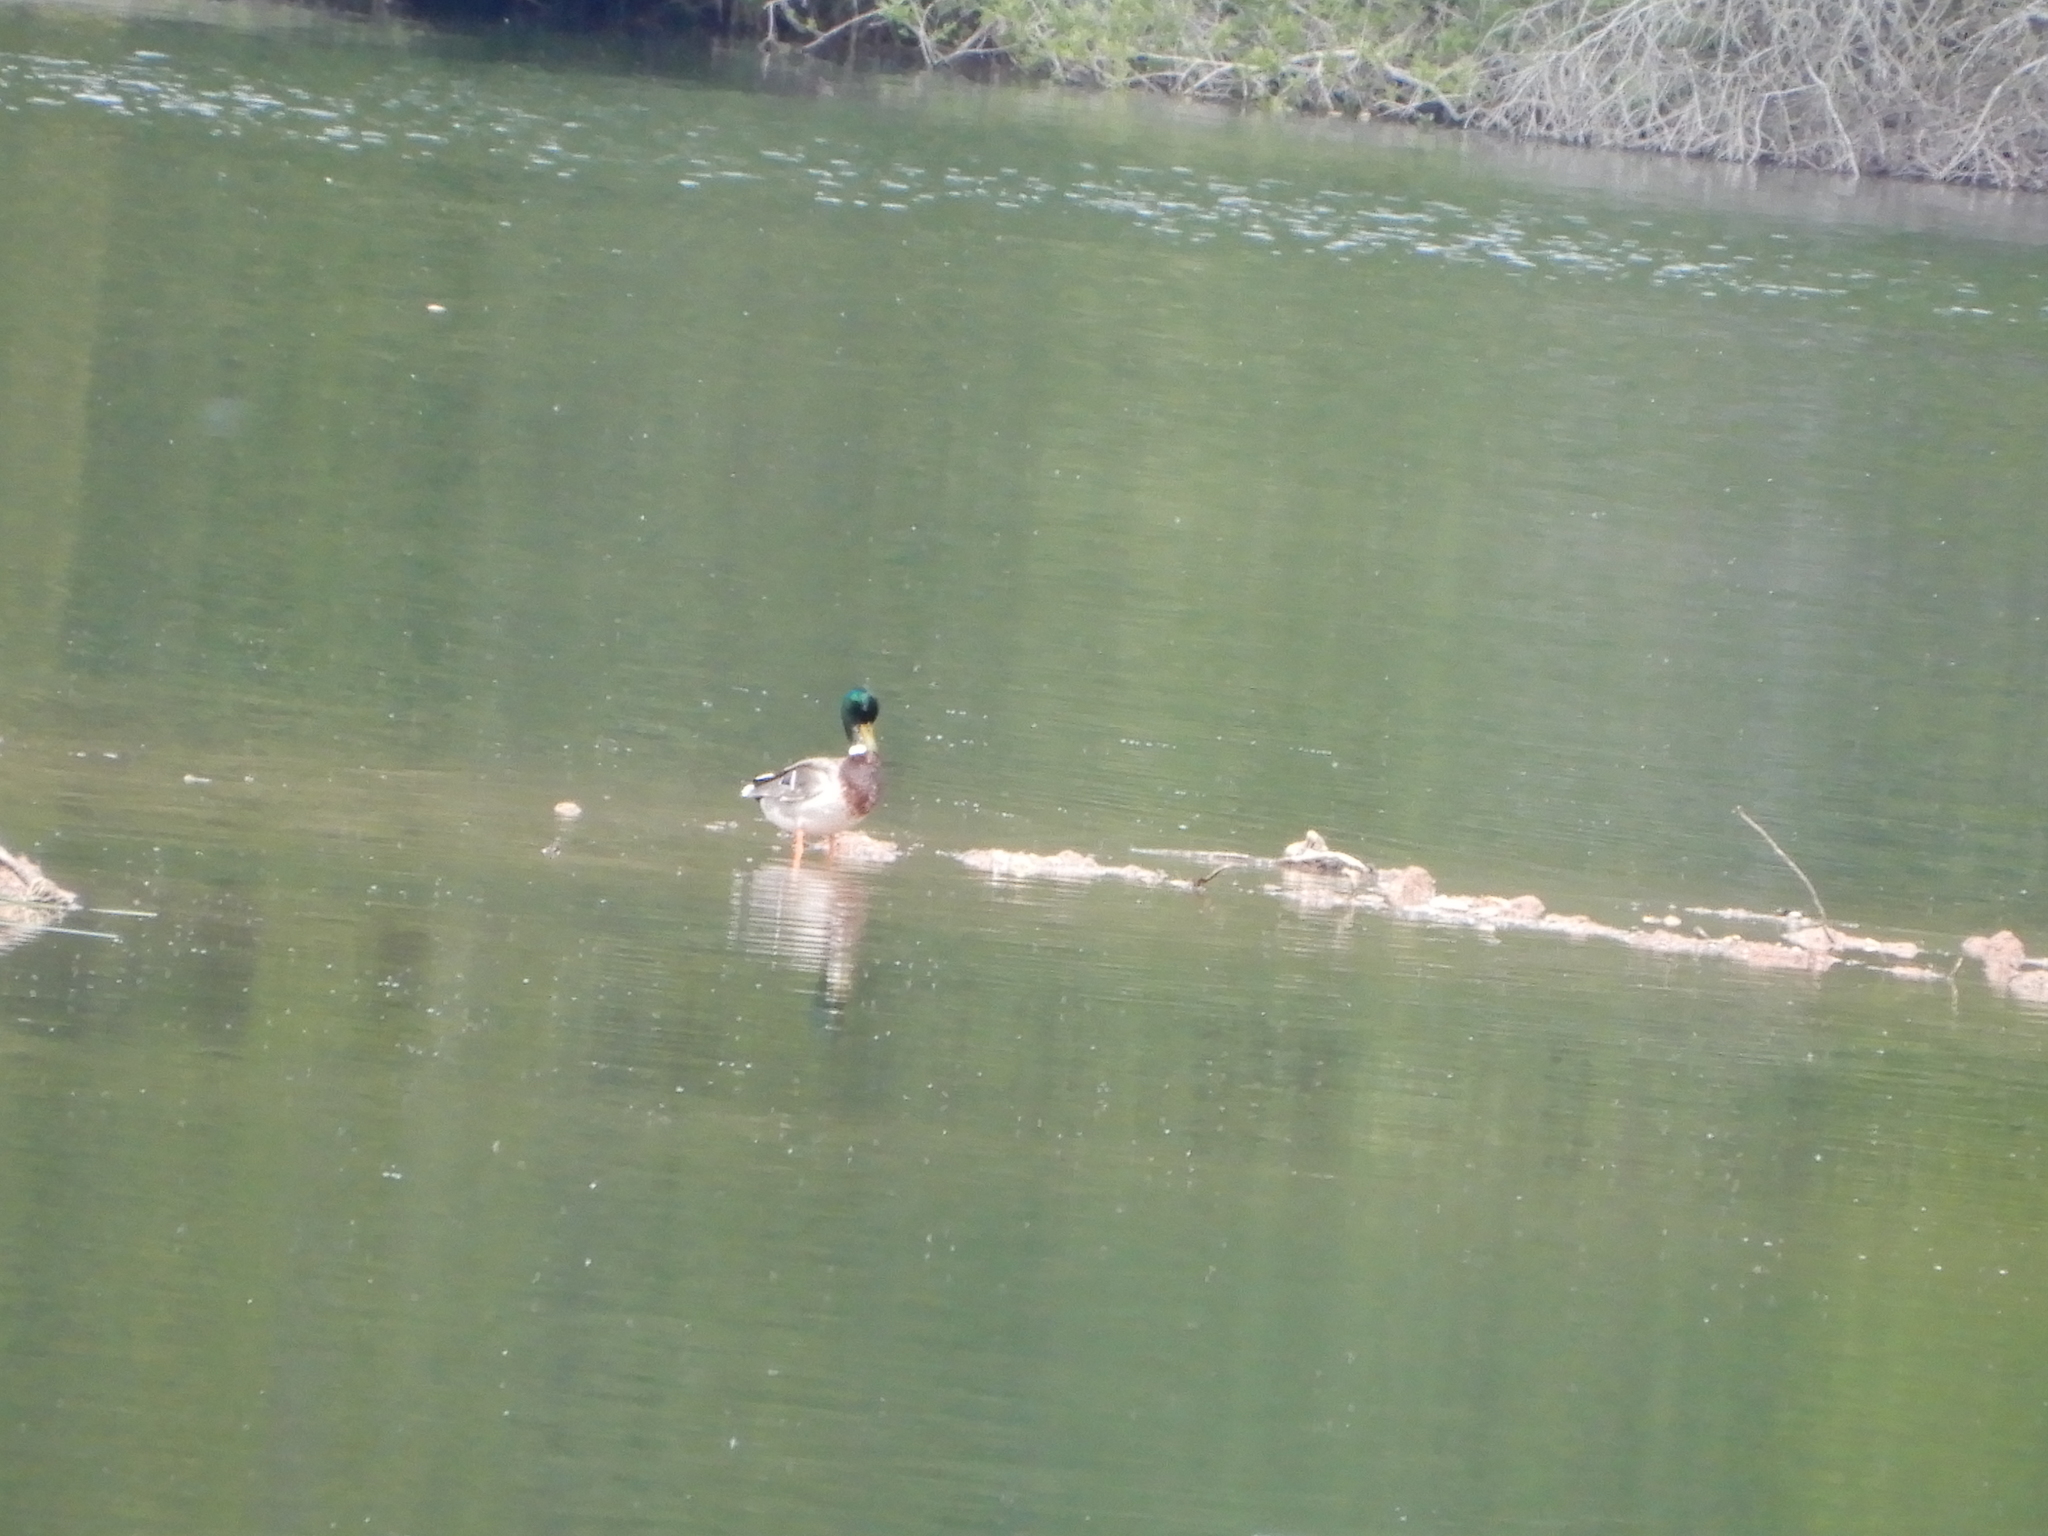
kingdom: Animalia
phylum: Chordata
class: Aves
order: Anseriformes
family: Anatidae
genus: Anas
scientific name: Anas platyrhynchos
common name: Mallard
